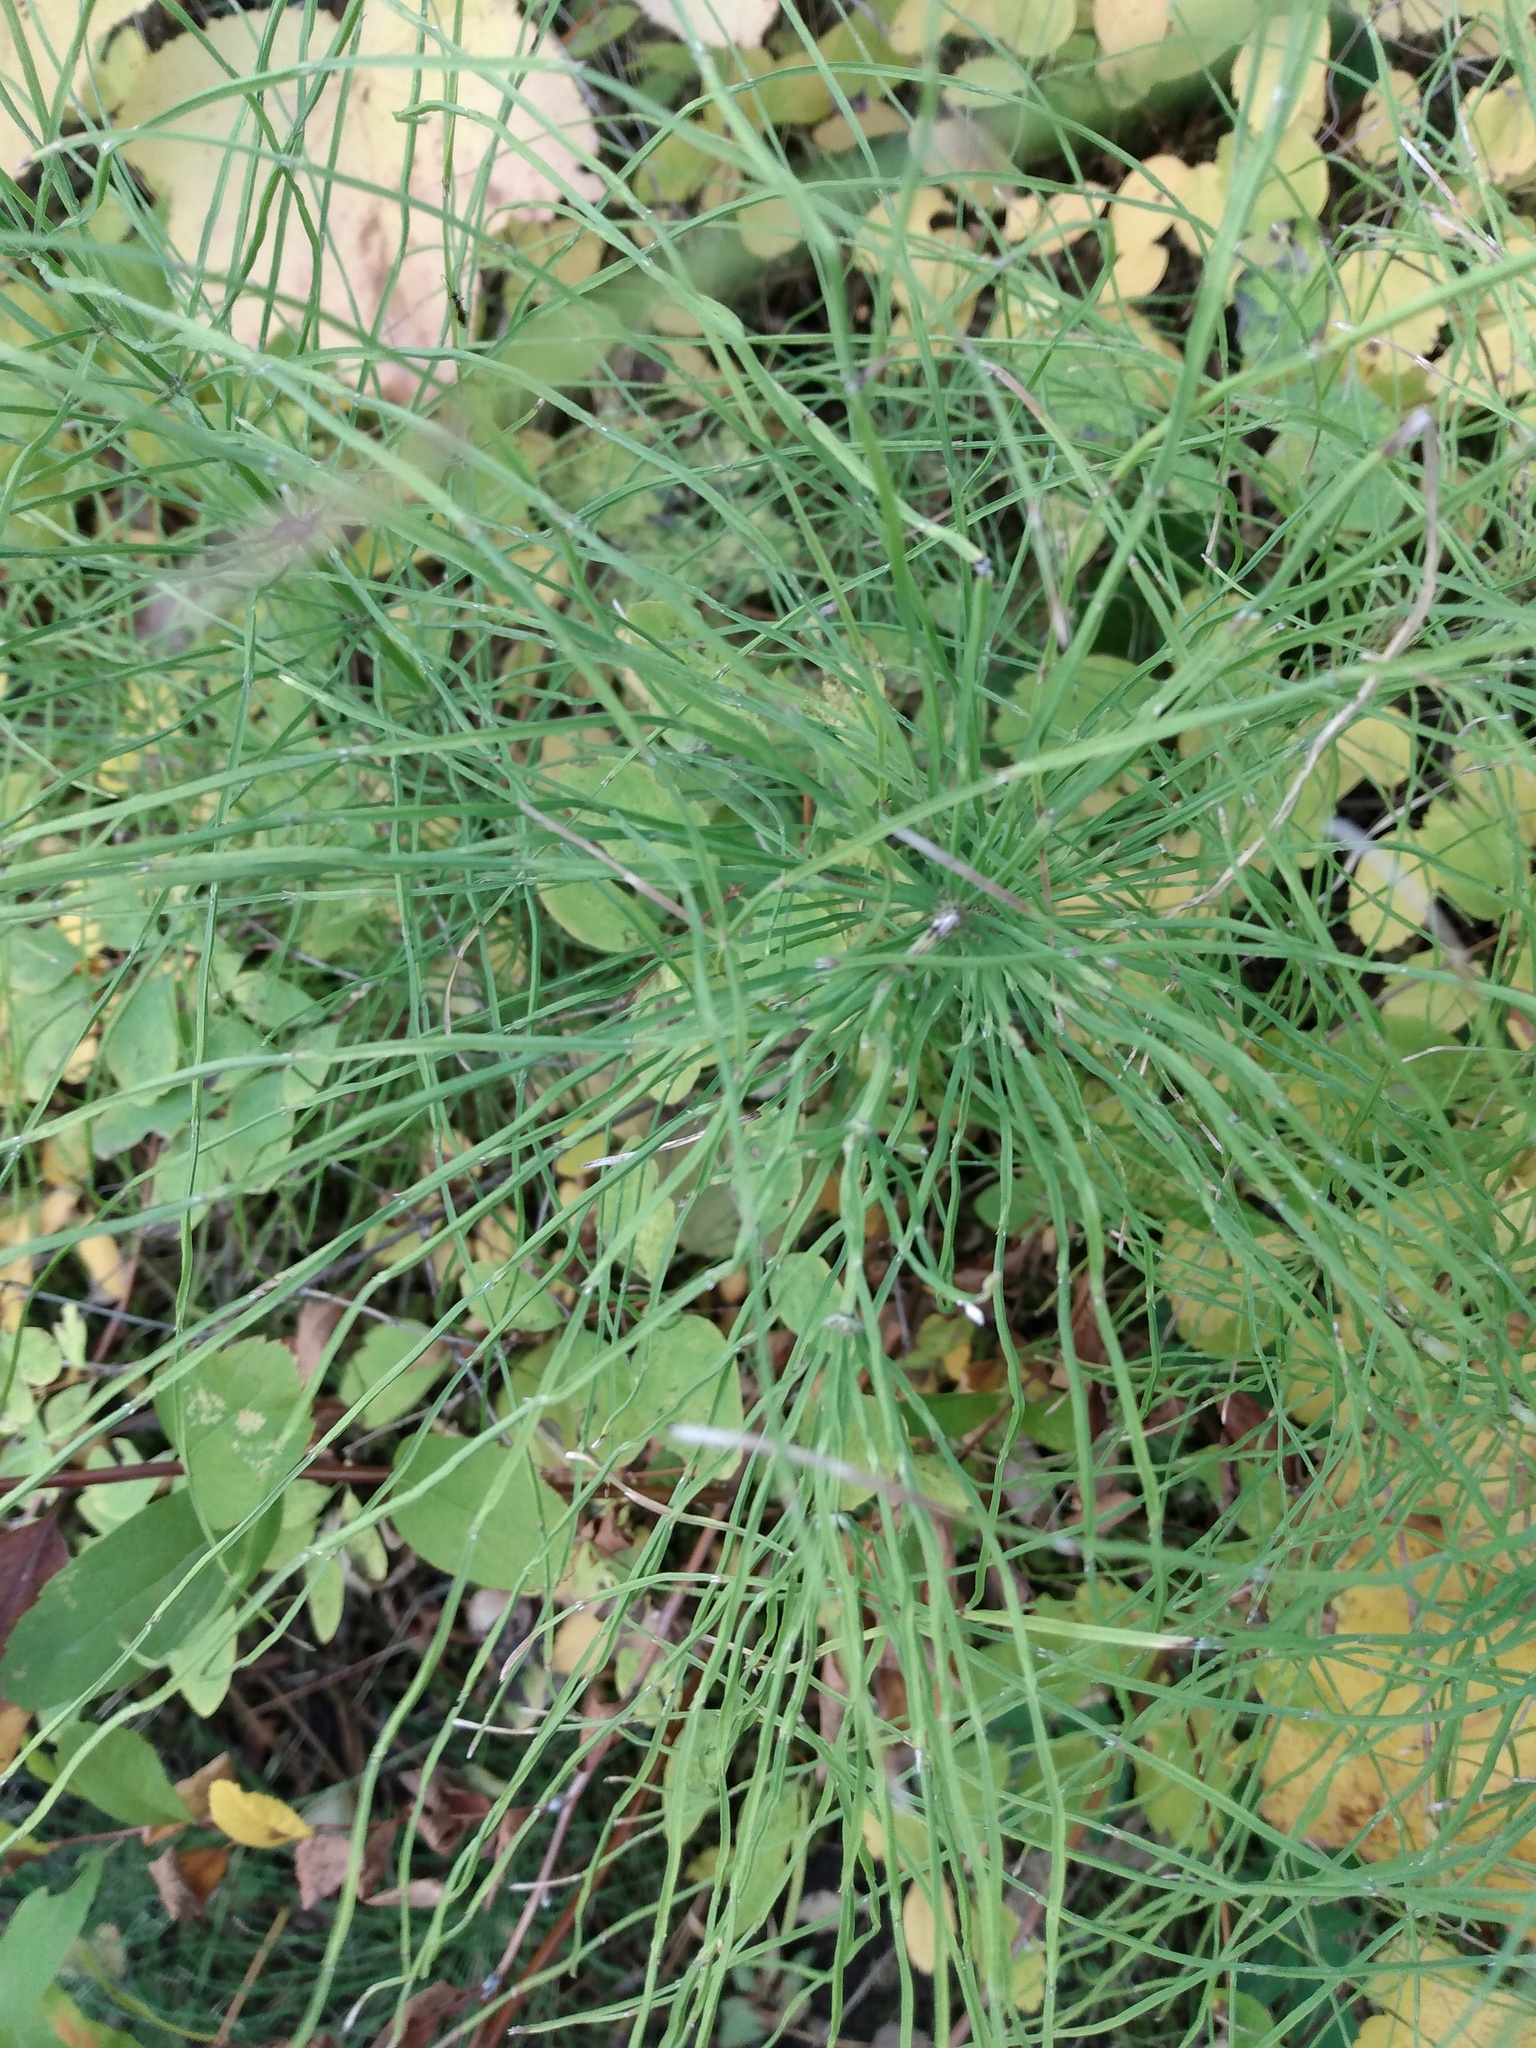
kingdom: Plantae
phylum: Tracheophyta
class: Polypodiopsida
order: Equisetales
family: Equisetaceae
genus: Equisetum
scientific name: Equisetum arvense
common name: Field horsetail
